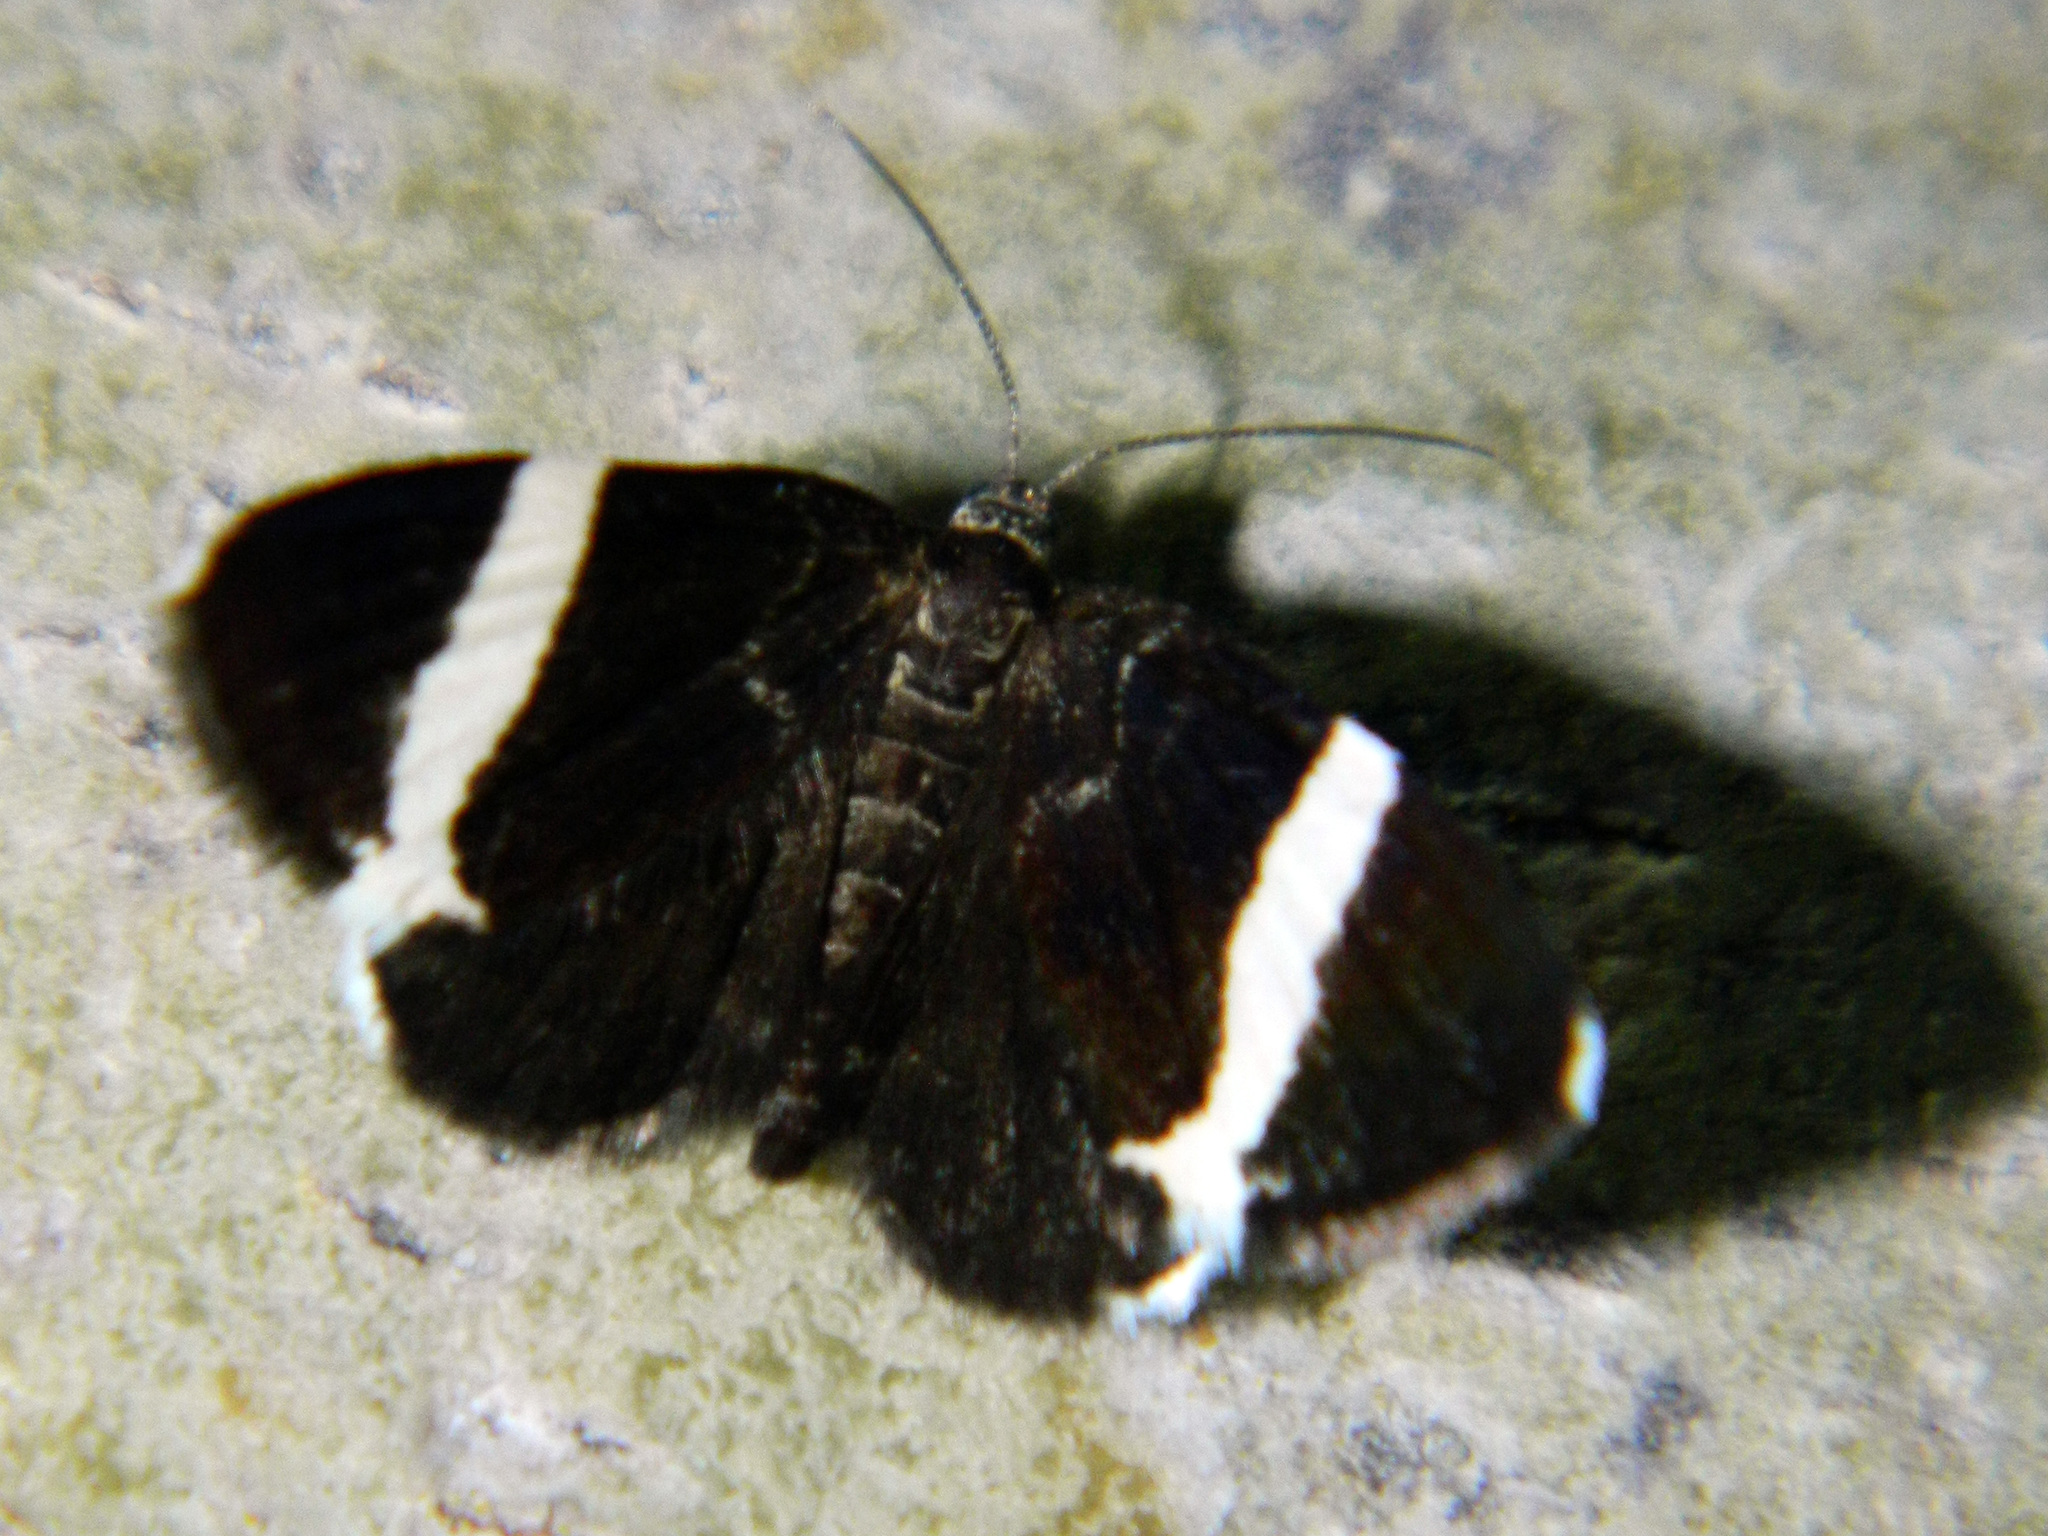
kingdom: Animalia
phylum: Arthropoda
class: Insecta
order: Lepidoptera
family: Geometridae
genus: Trichodezia
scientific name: Trichodezia albovittata
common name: White striped black
